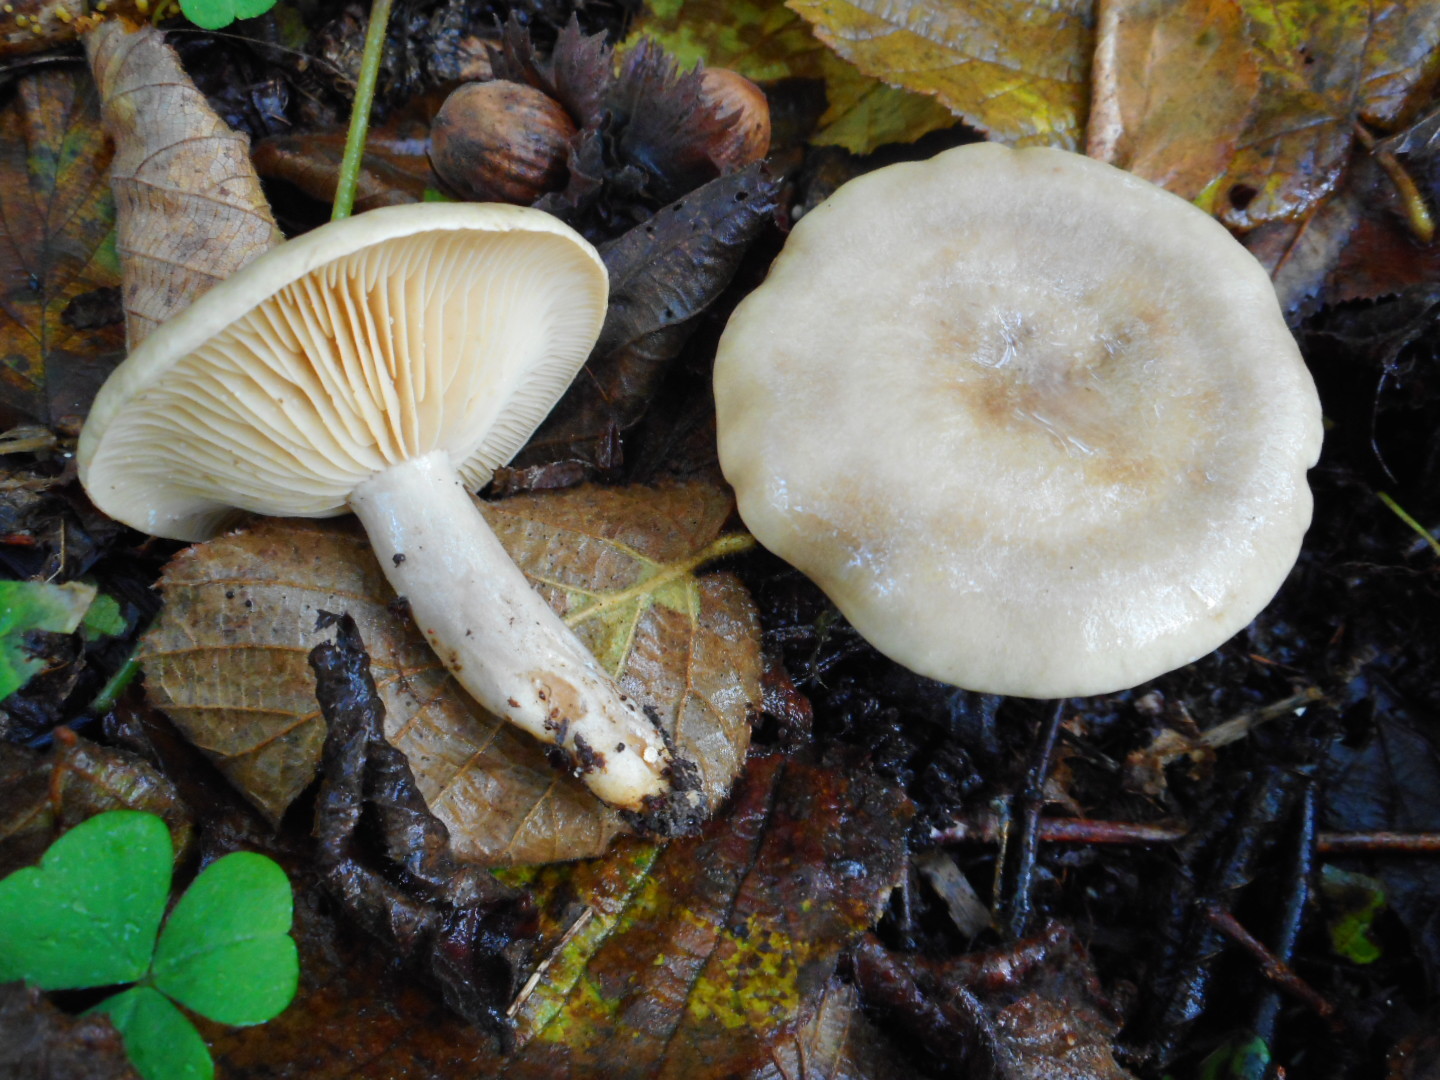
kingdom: Fungi
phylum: Basidiomycota
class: Agaricomycetes
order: Russulales
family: Russulaceae
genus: Lactarius
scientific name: Lactarius pyrogalus
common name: Fiery milkcap
